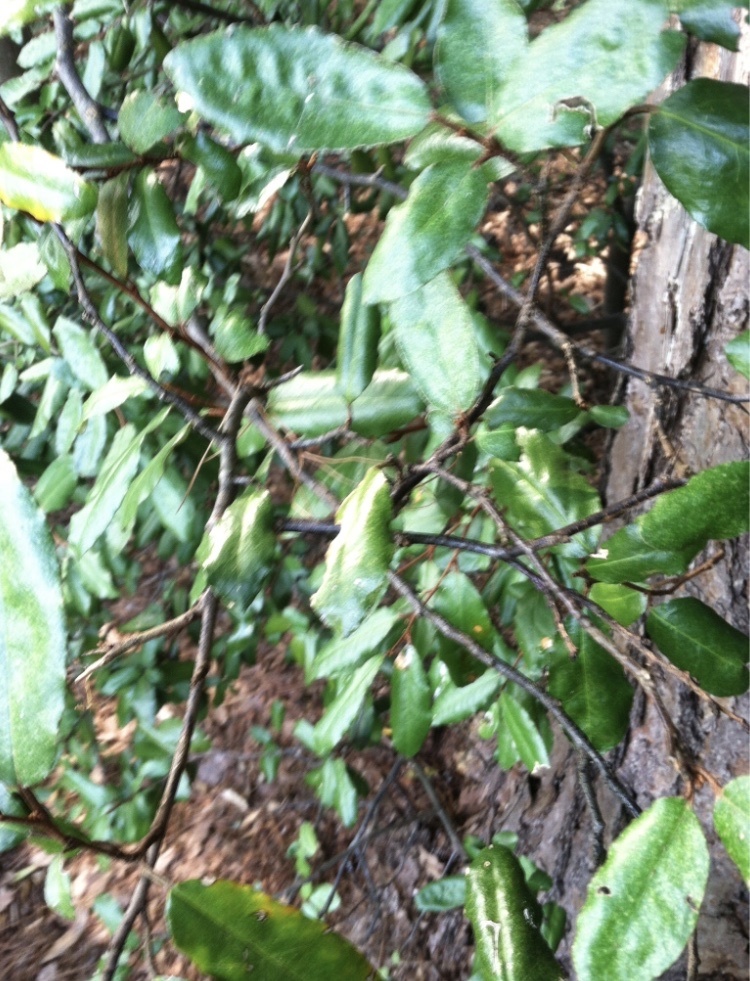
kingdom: Plantae
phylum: Tracheophyta
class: Magnoliopsida
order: Rosales
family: Elaeagnaceae
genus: Elaeagnus
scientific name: Elaeagnus pungens
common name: Spiny oleaster
